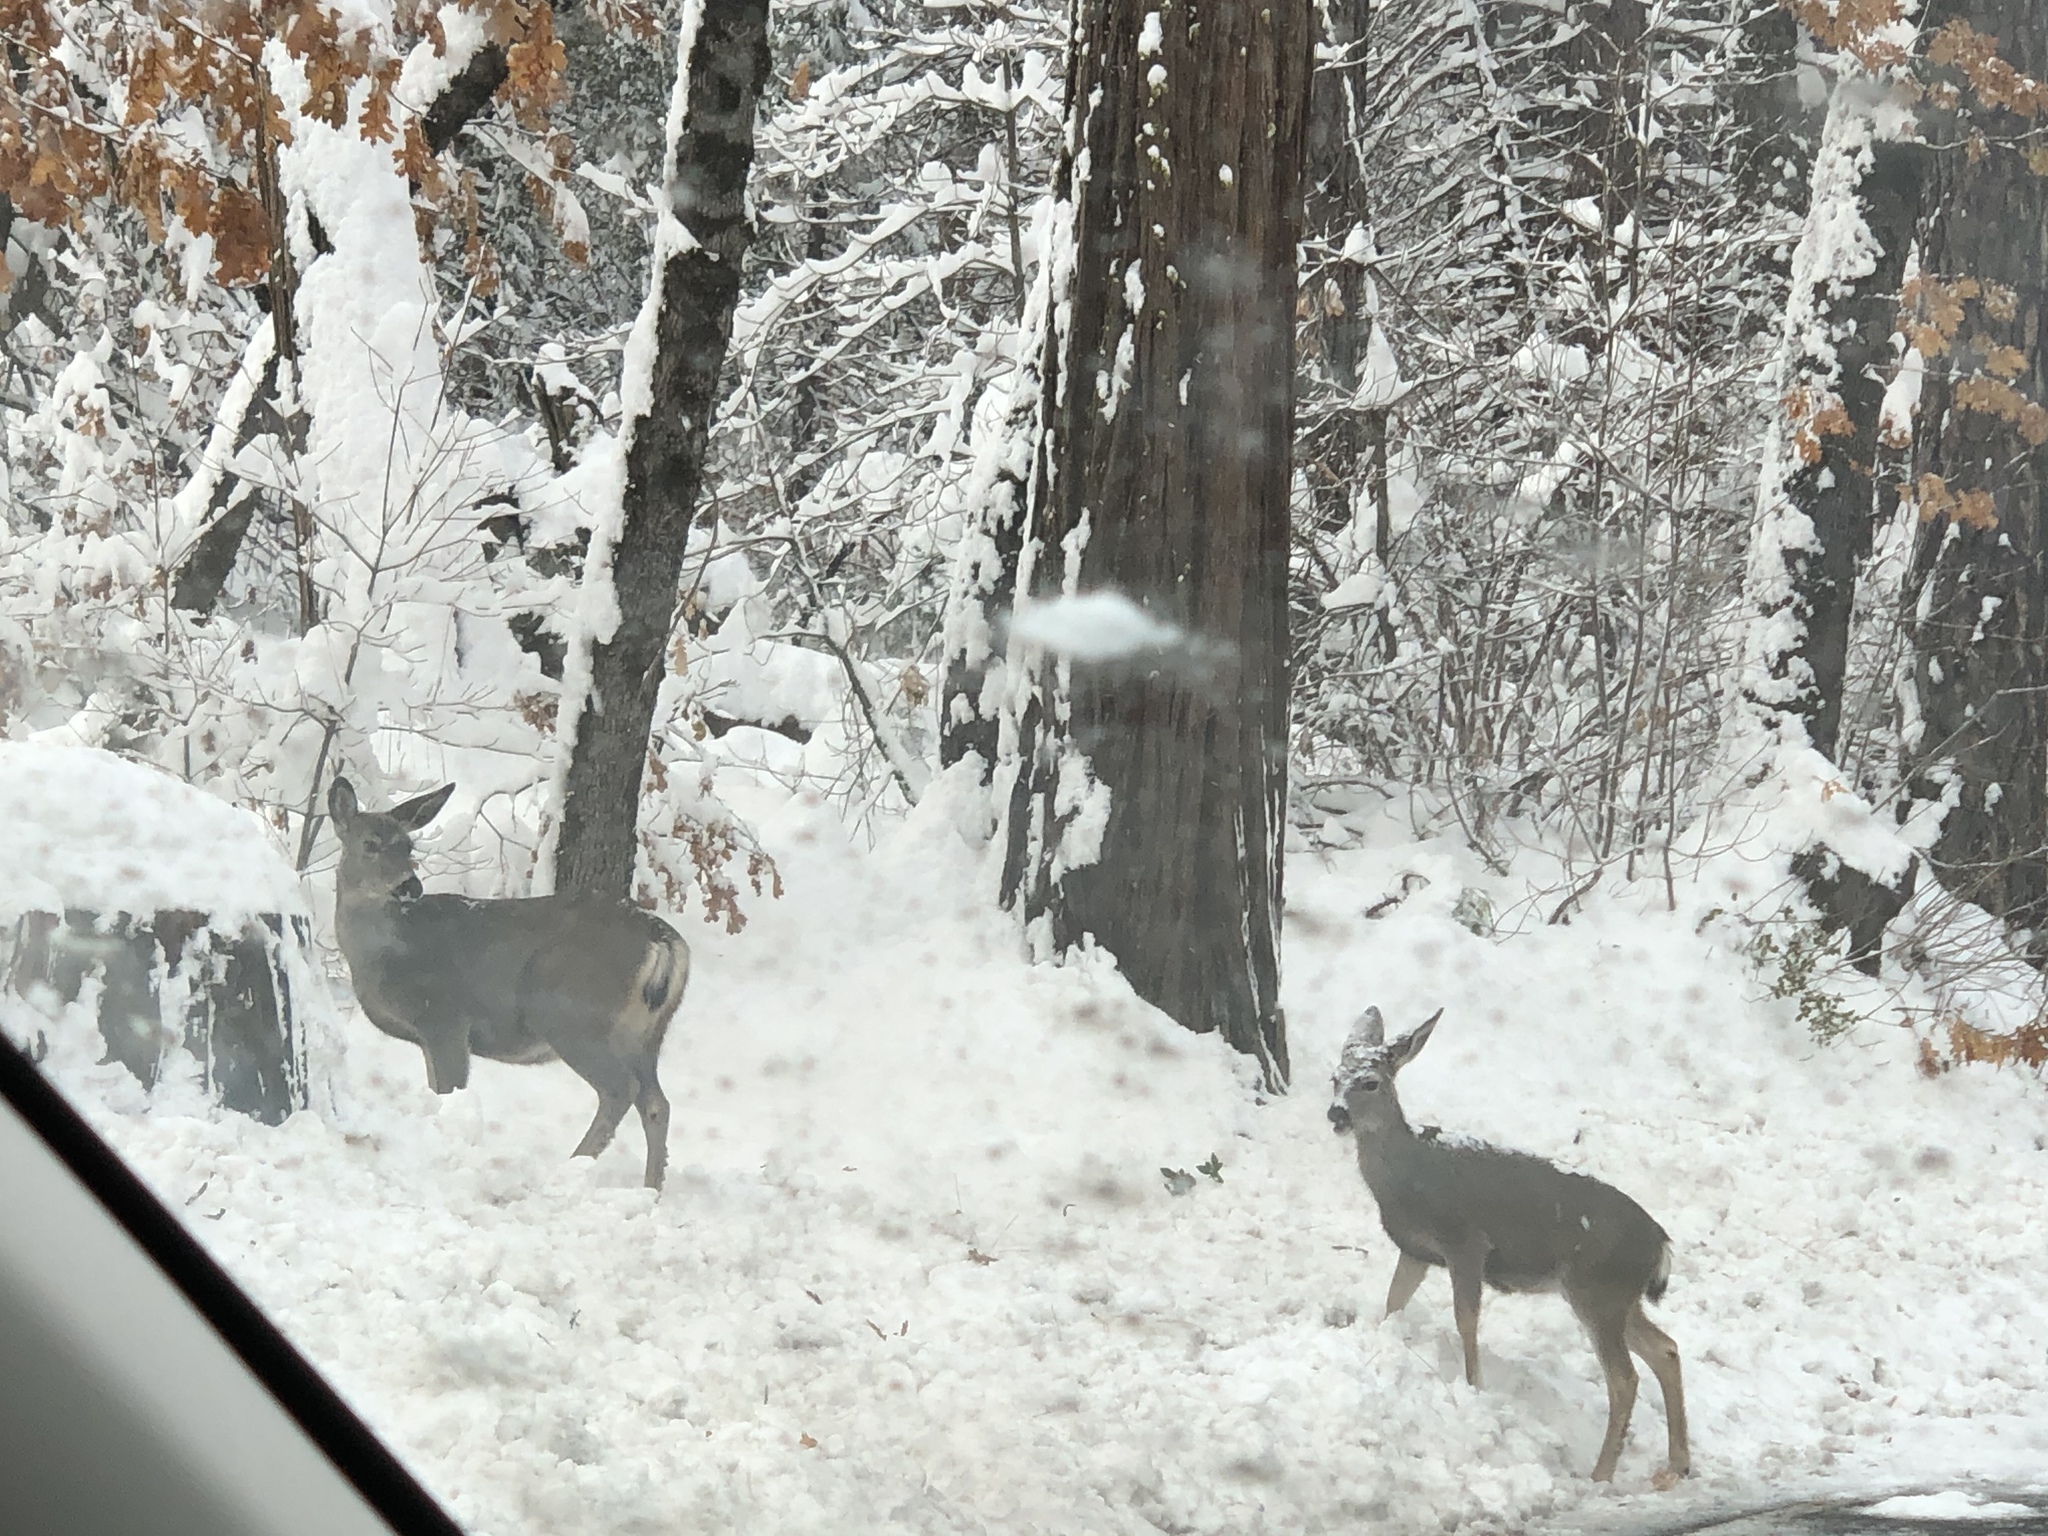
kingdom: Animalia
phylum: Chordata
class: Mammalia
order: Artiodactyla
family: Cervidae
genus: Odocoileus
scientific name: Odocoileus hemionus
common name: Mule deer
